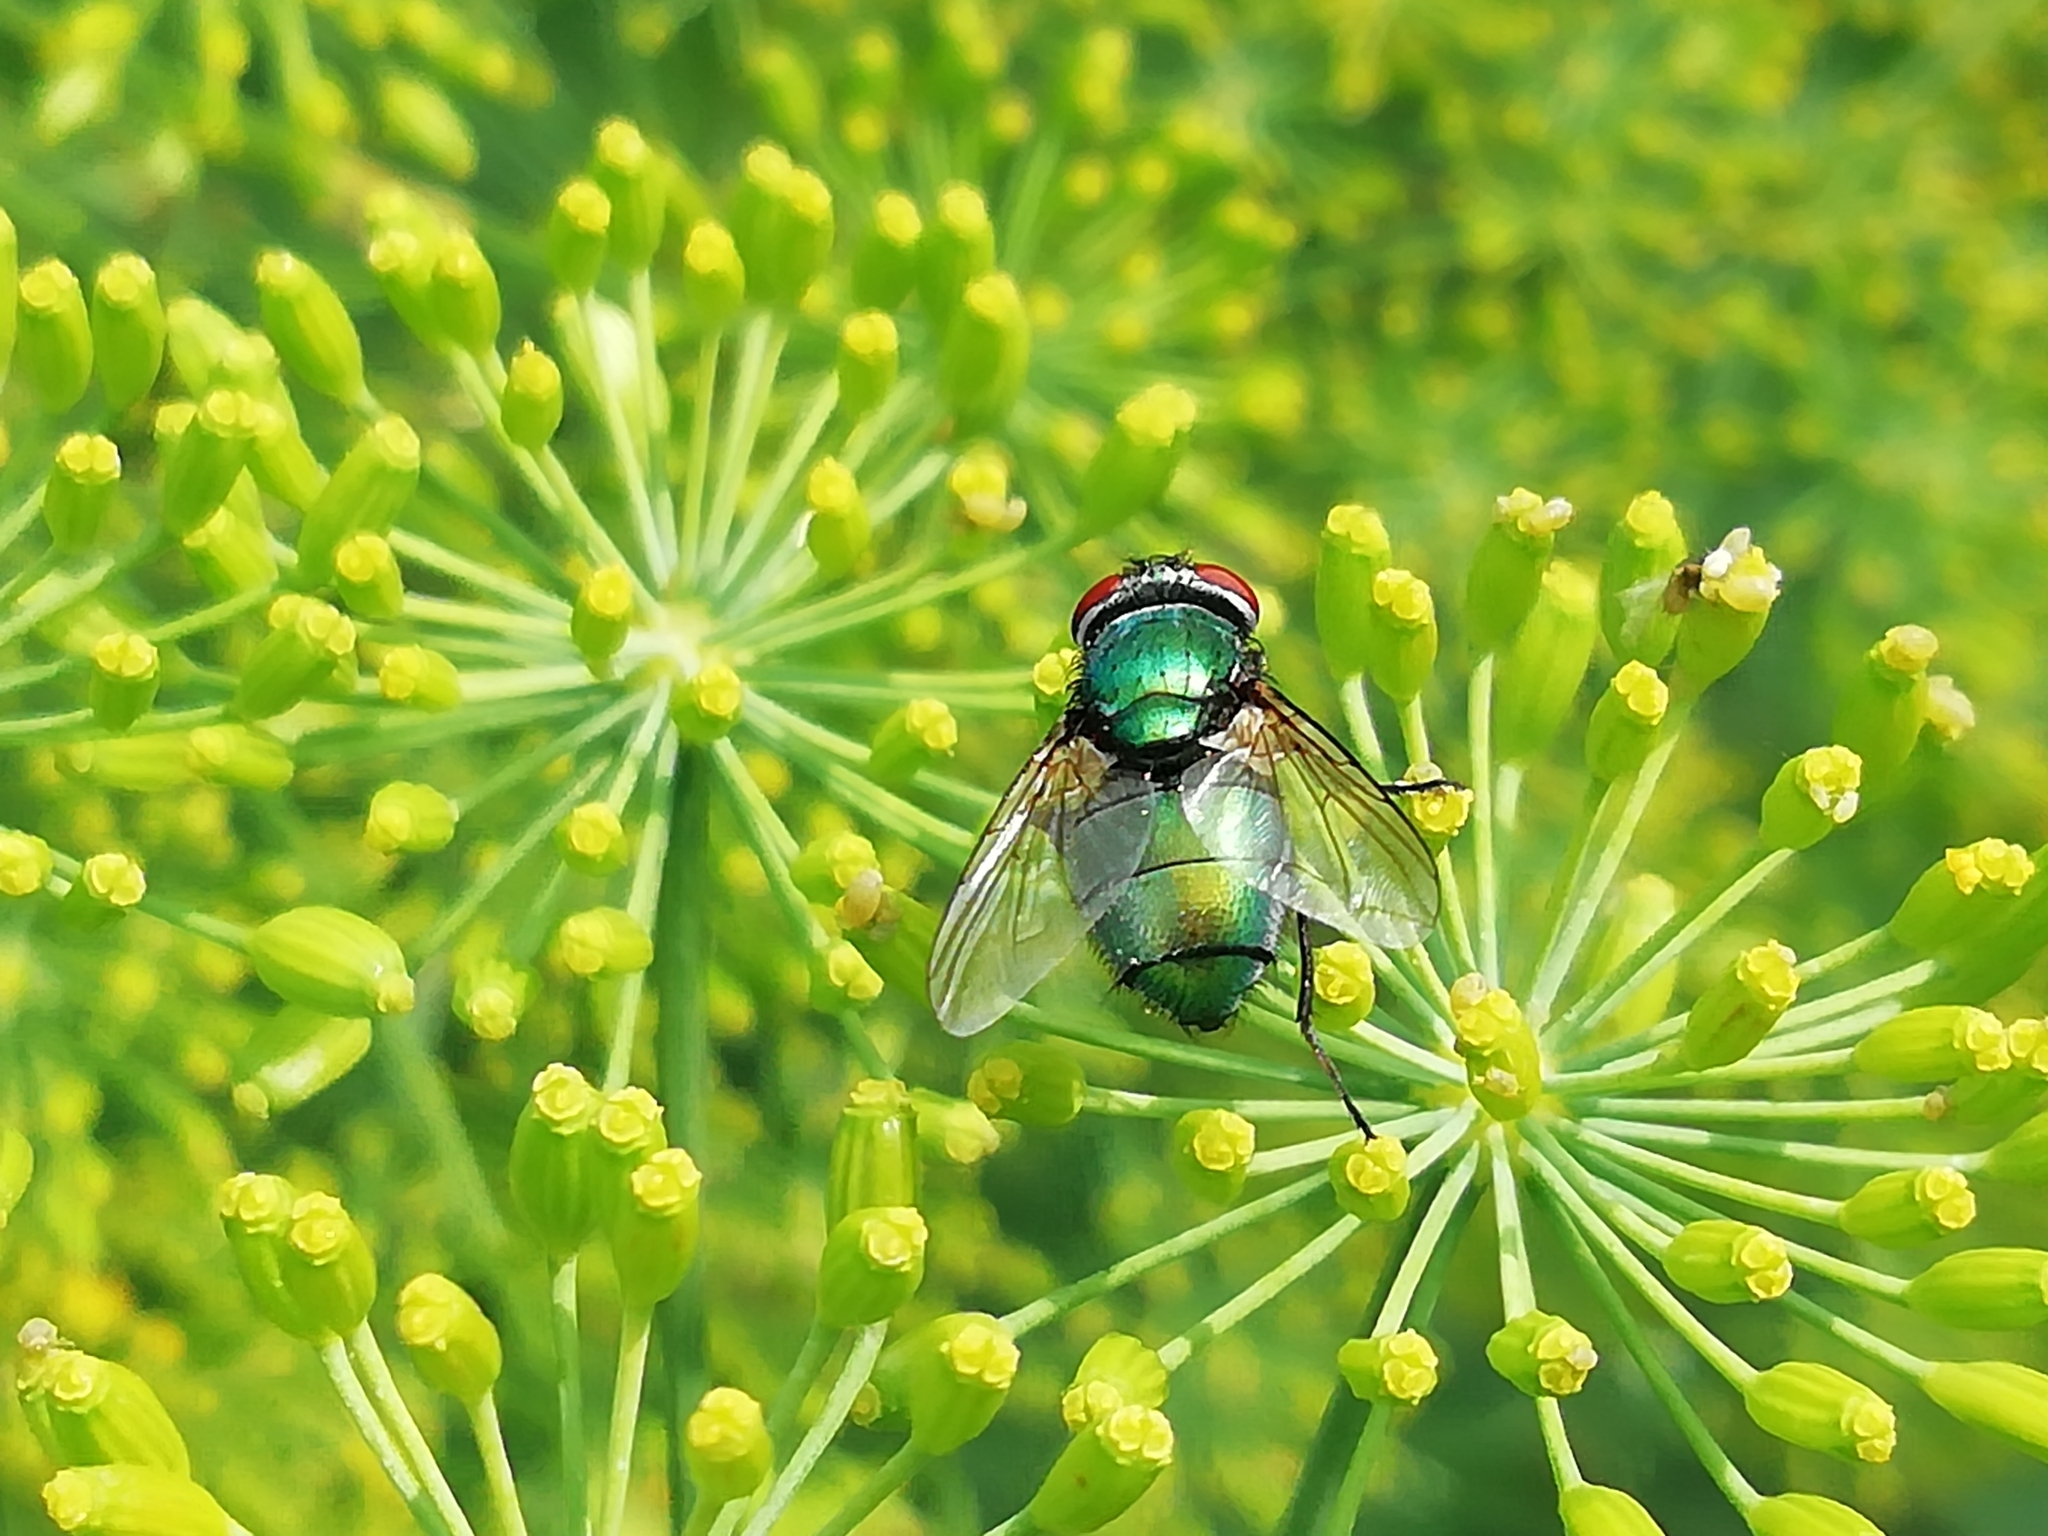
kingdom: Animalia
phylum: Arthropoda
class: Insecta
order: Diptera
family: Calliphoridae
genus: Lucilia
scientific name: Lucilia sericata
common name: Blow fly
